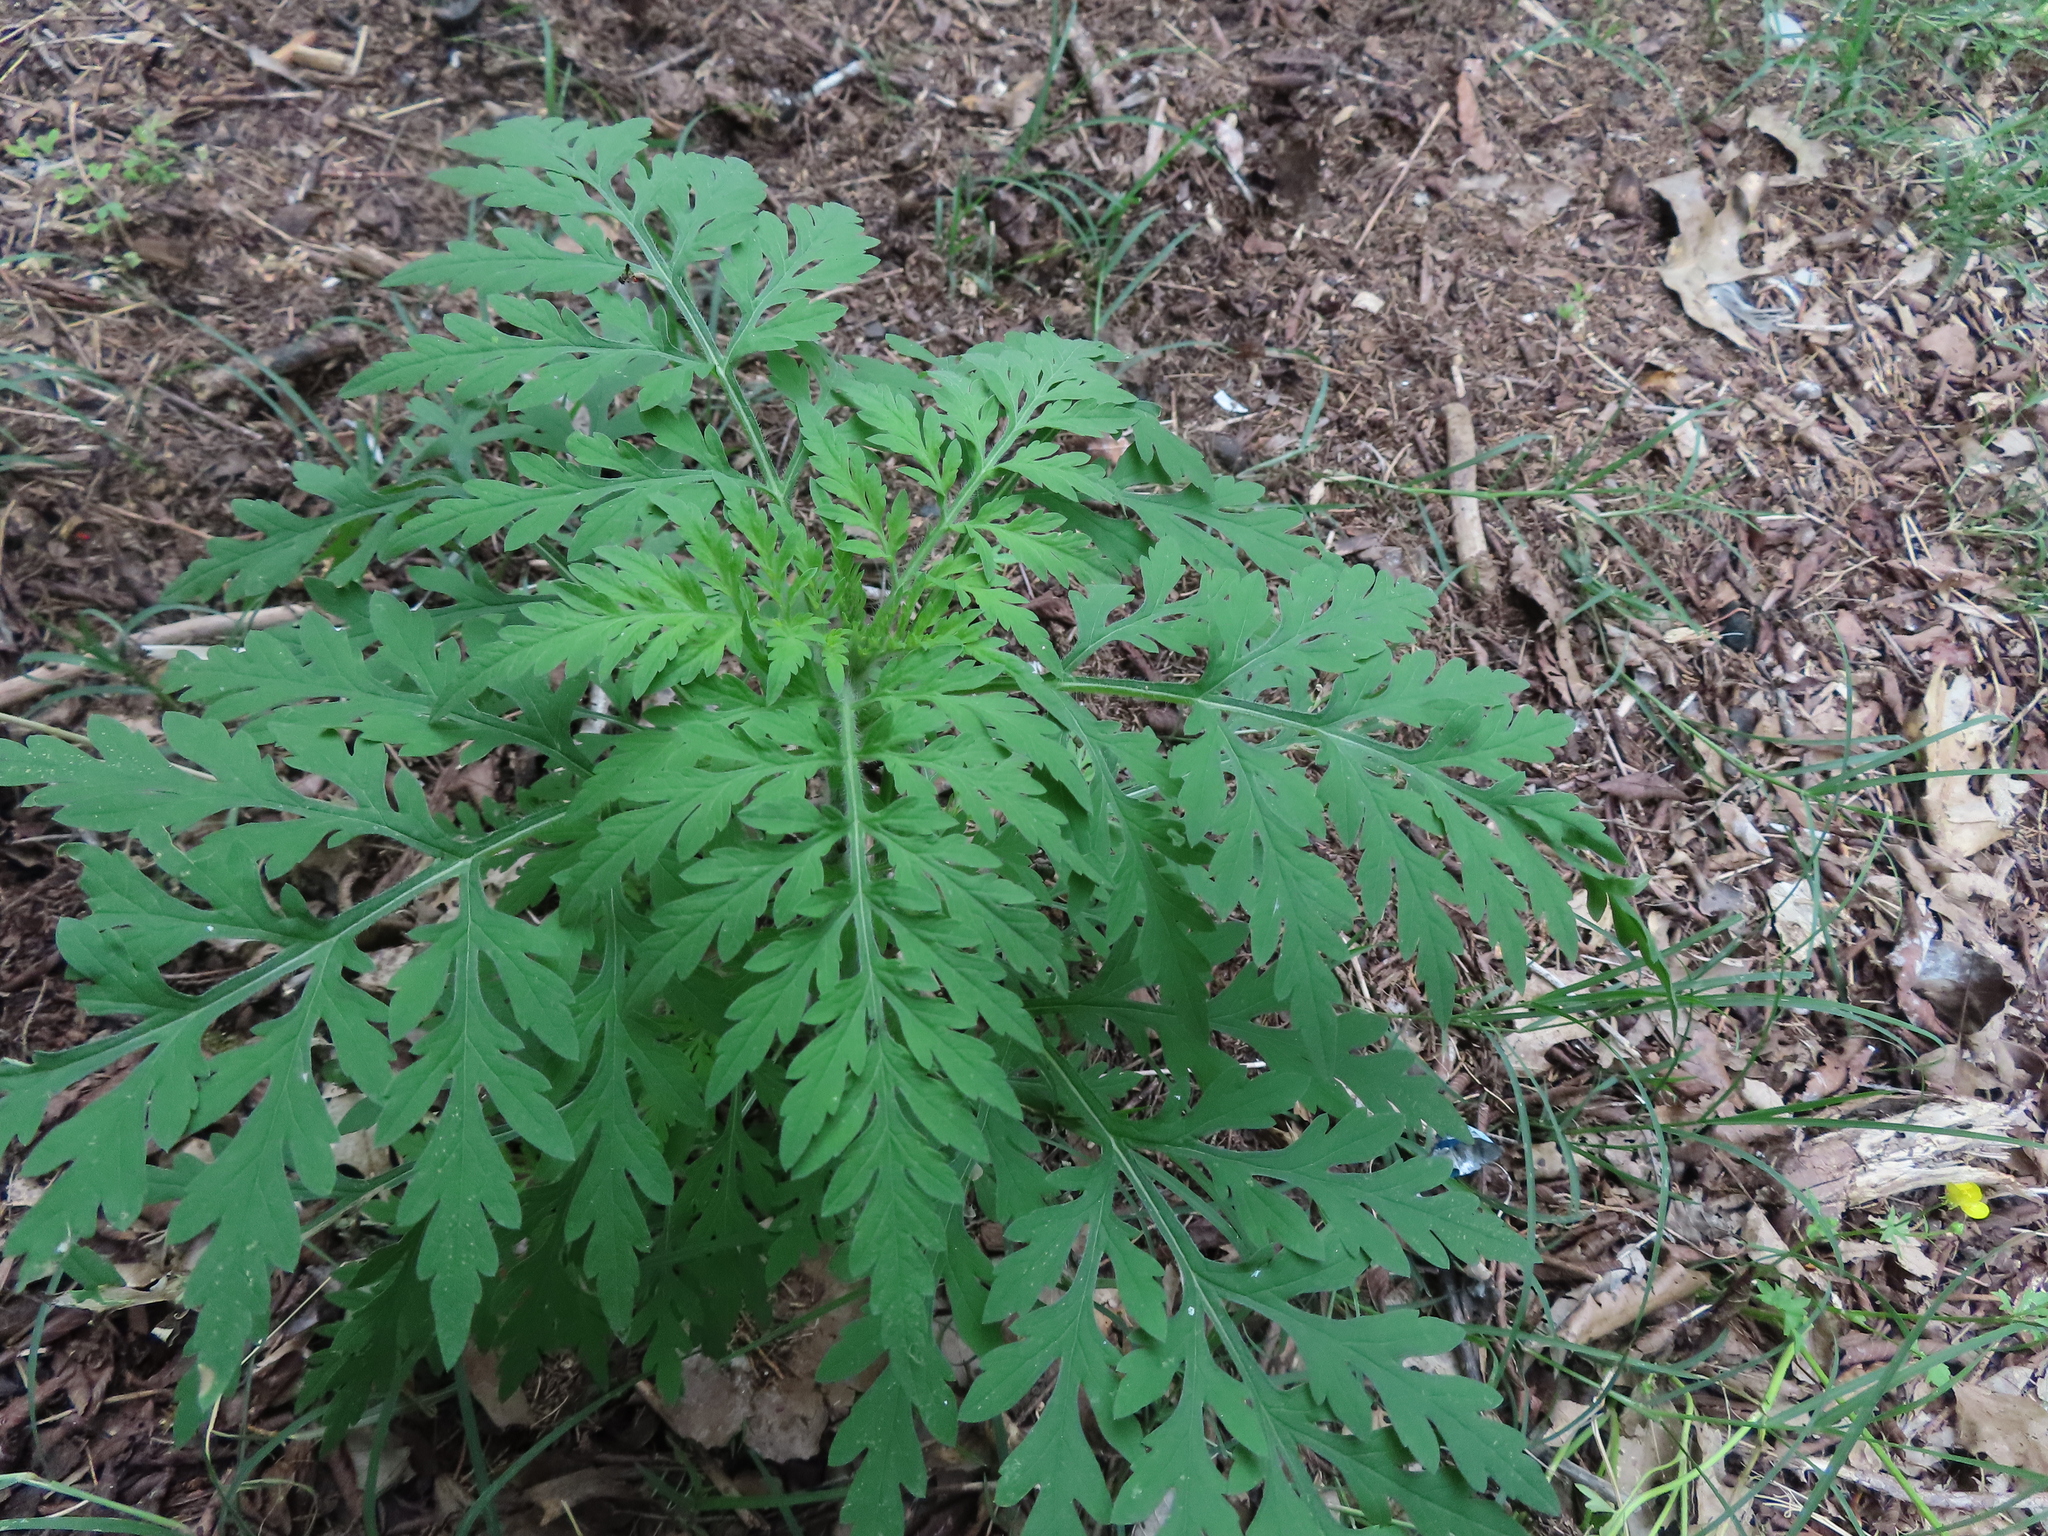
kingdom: Plantae
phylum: Tracheophyta
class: Magnoliopsida
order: Asterales
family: Asteraceae
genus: Ambrosia
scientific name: Ambrosia artemisiifolia
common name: Annual ragweed
